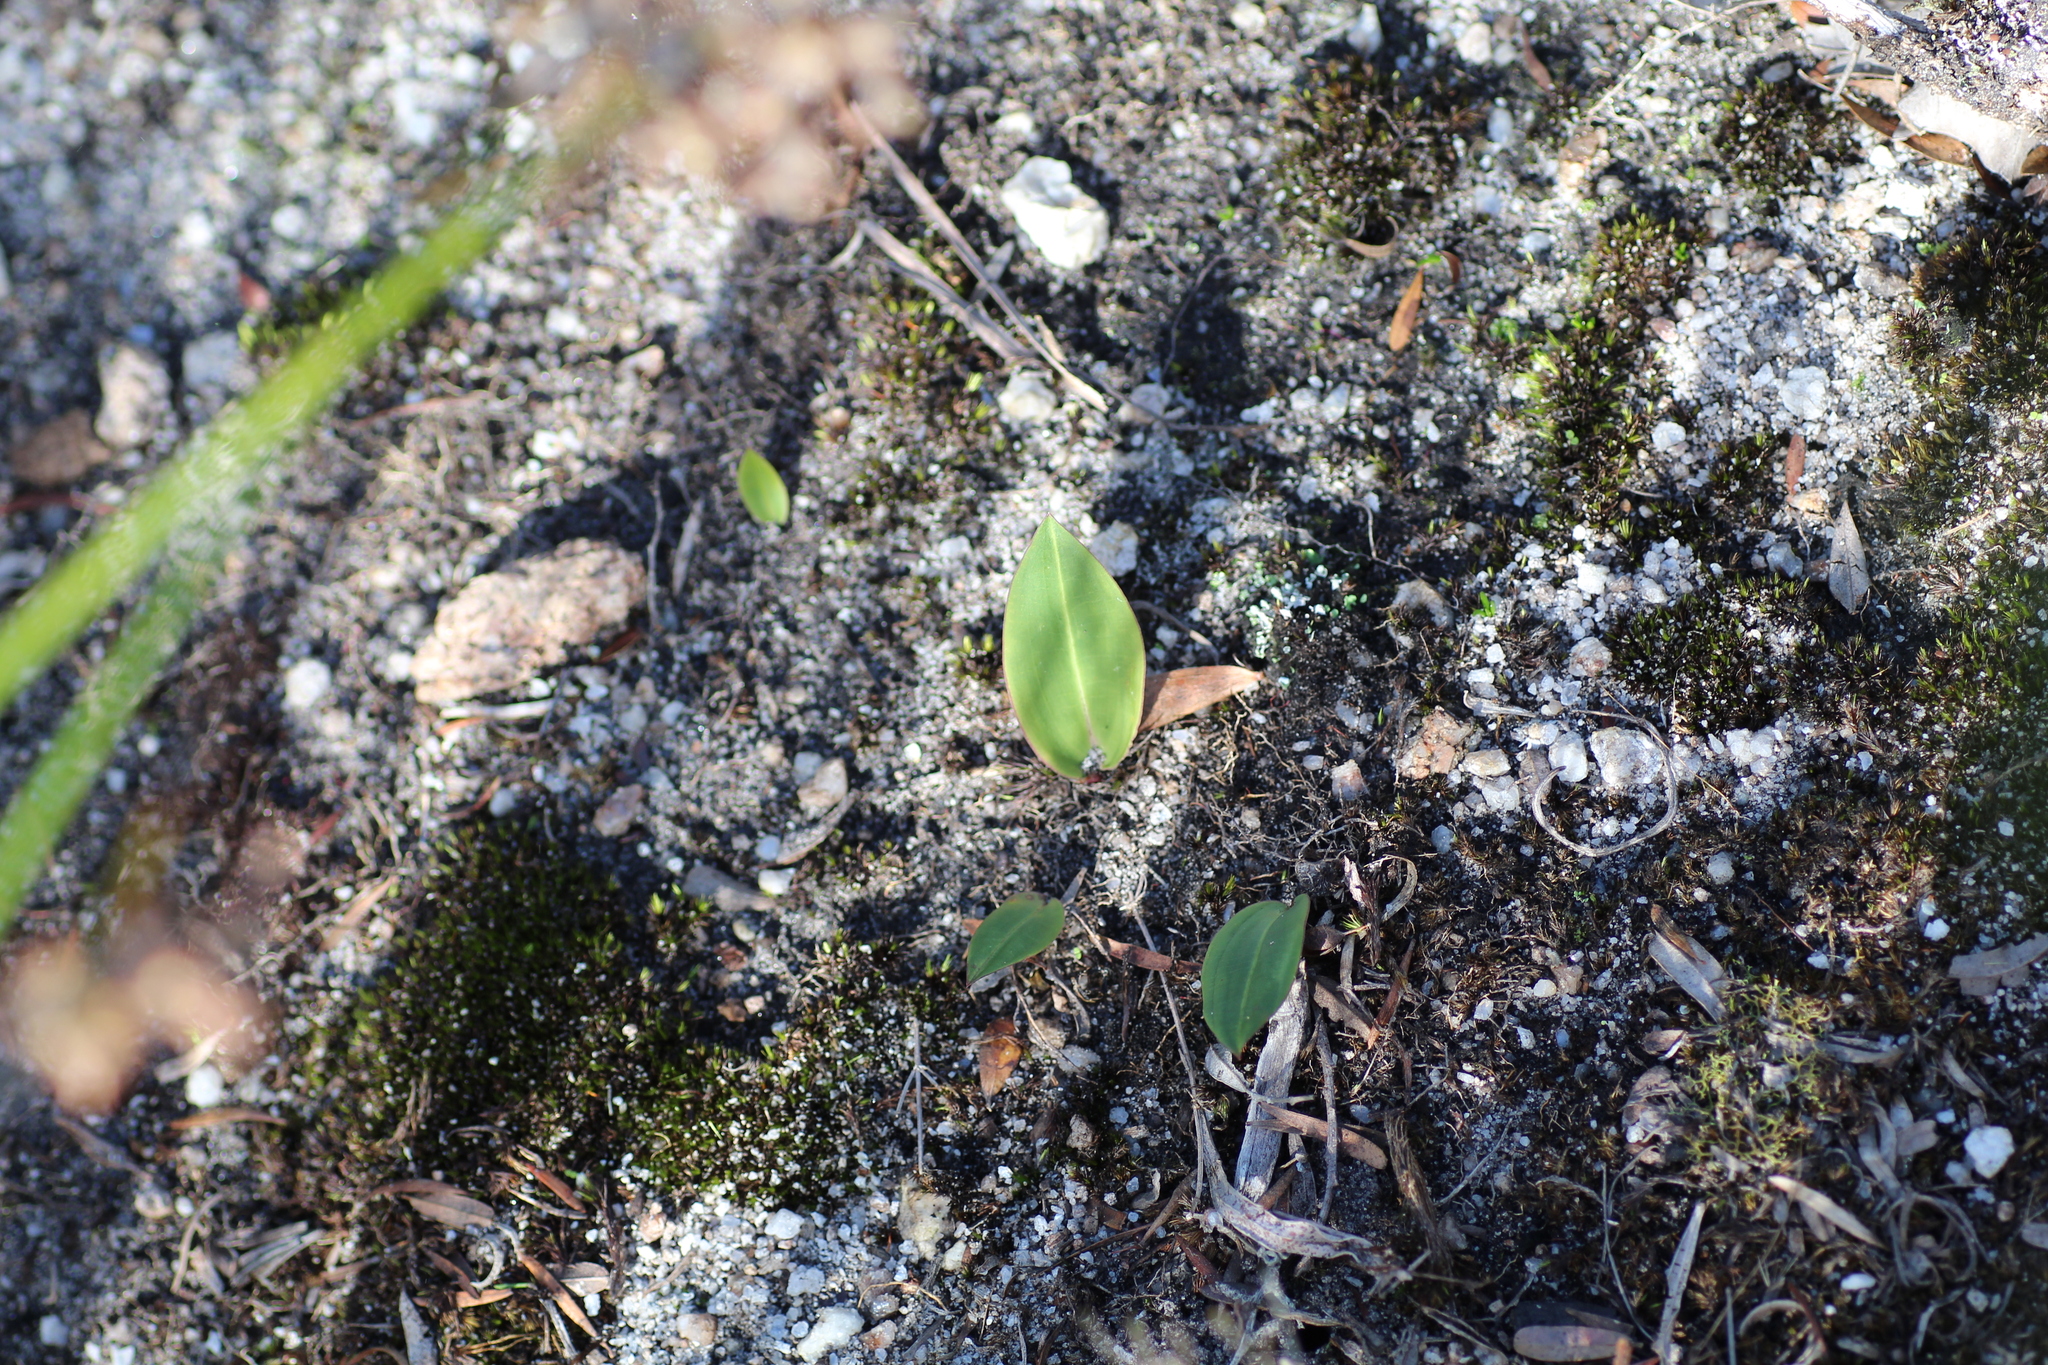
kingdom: Plantae
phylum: Tracheophyta
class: Liliopsida
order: Asparagales
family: Orchidaceae
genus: Cryptostylis
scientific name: Cryptostylis ovata
